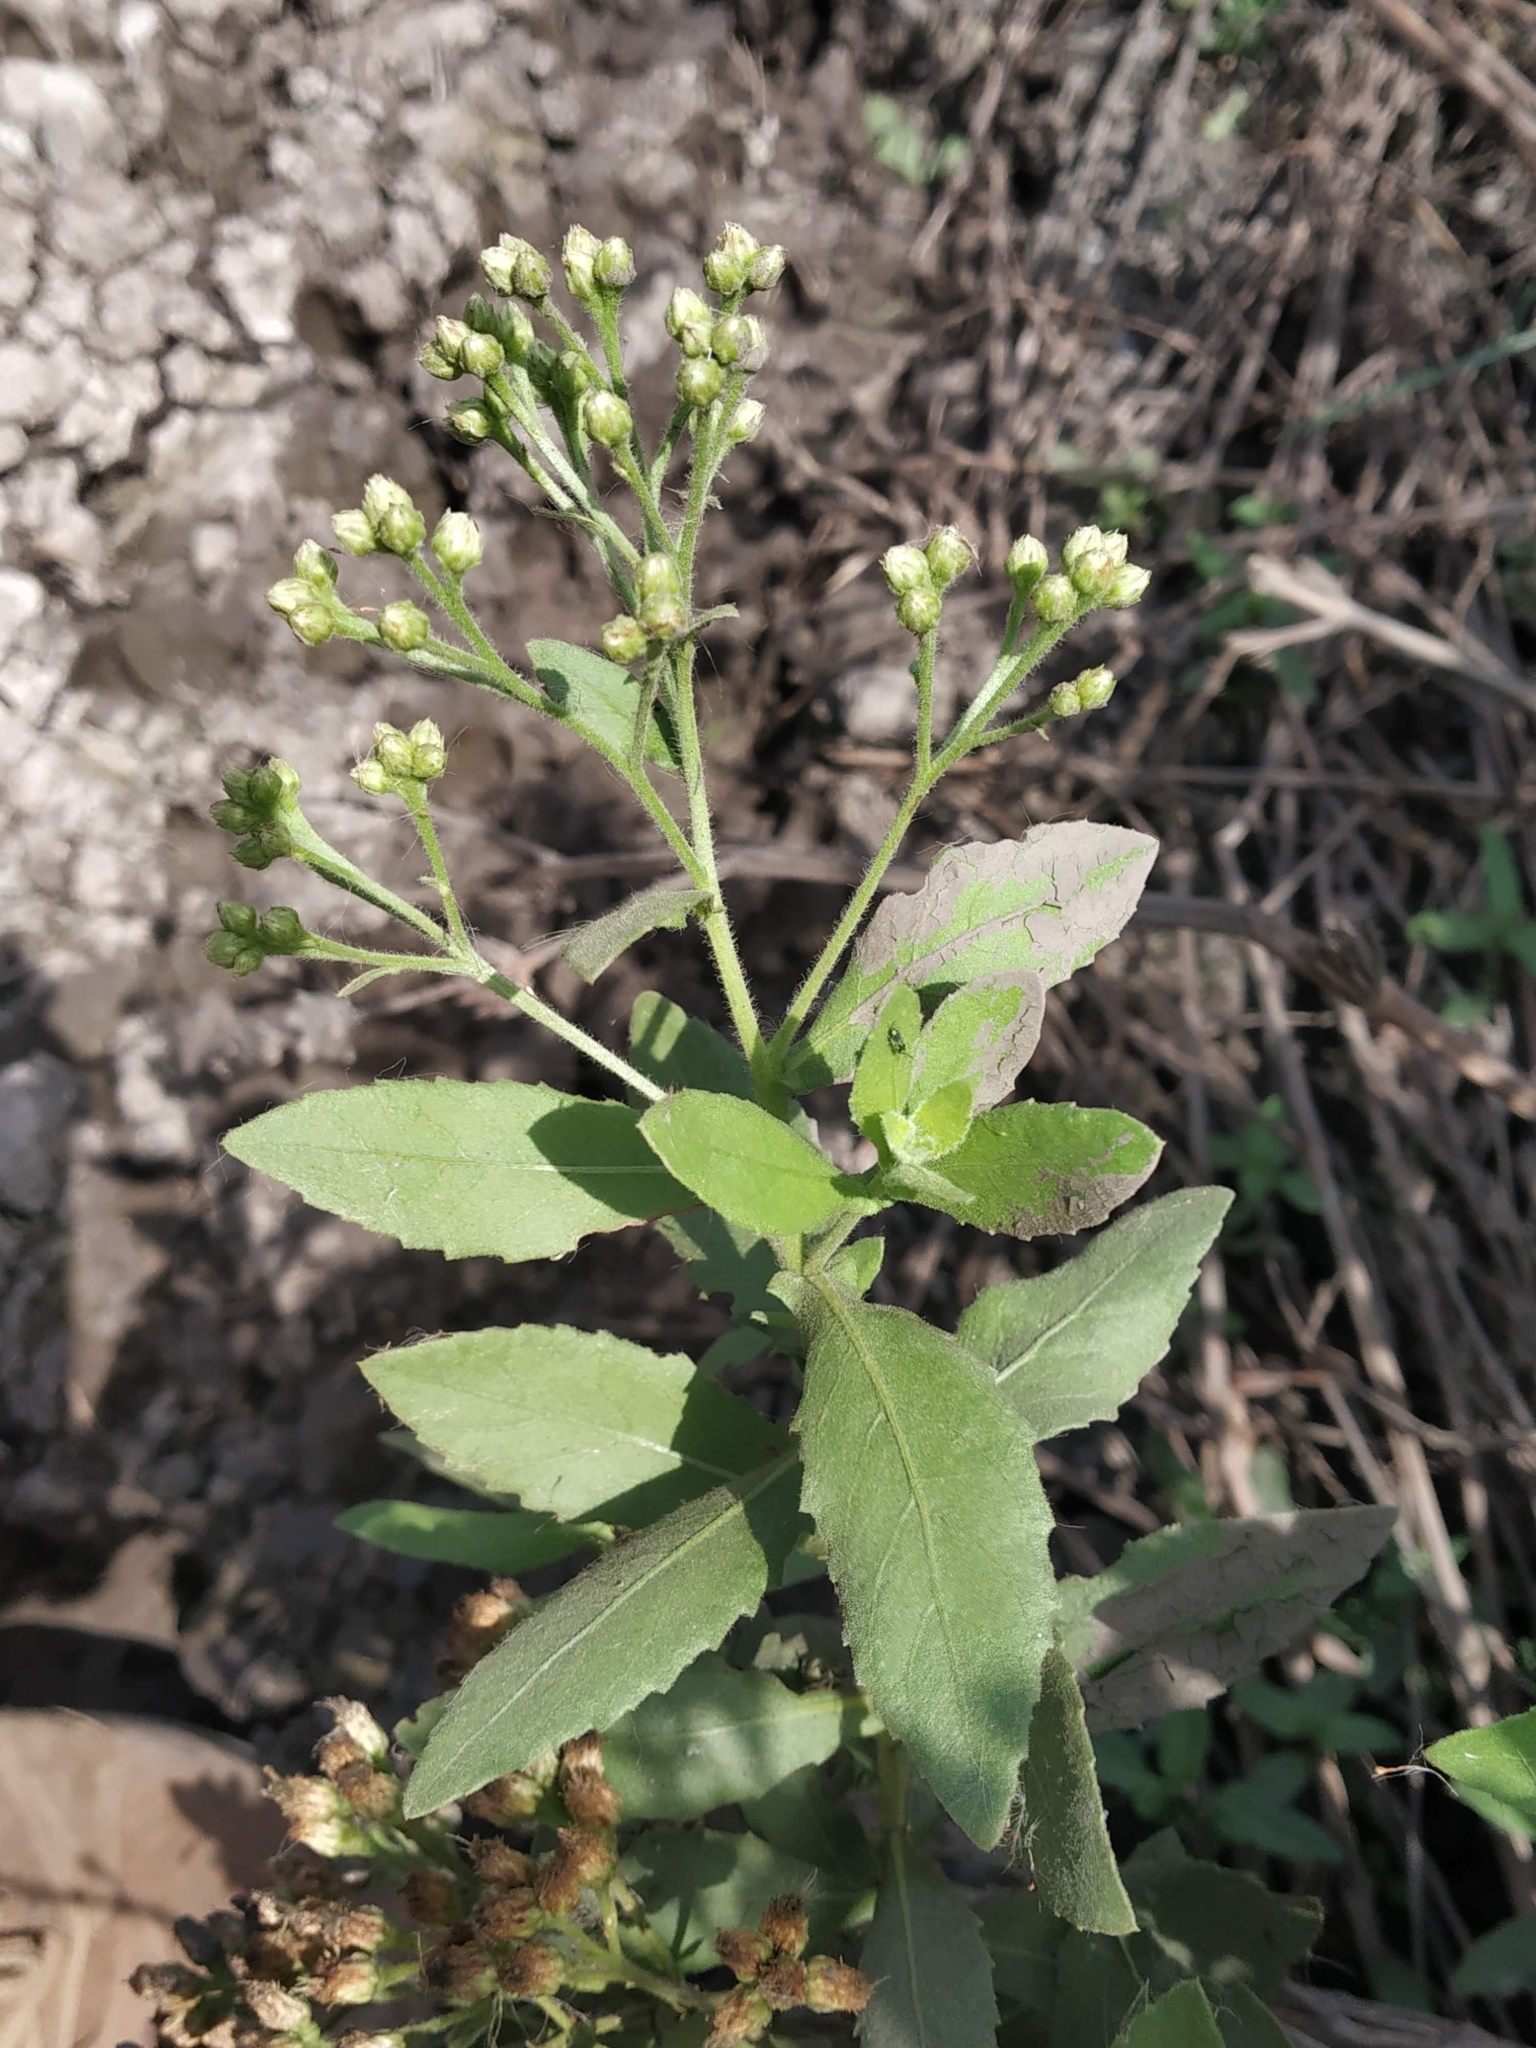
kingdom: Plantae
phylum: Tracheophyta
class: Magnoliopsida
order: Asterales
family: Asteraceae
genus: Pluchea
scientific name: Pluchea ovalis
